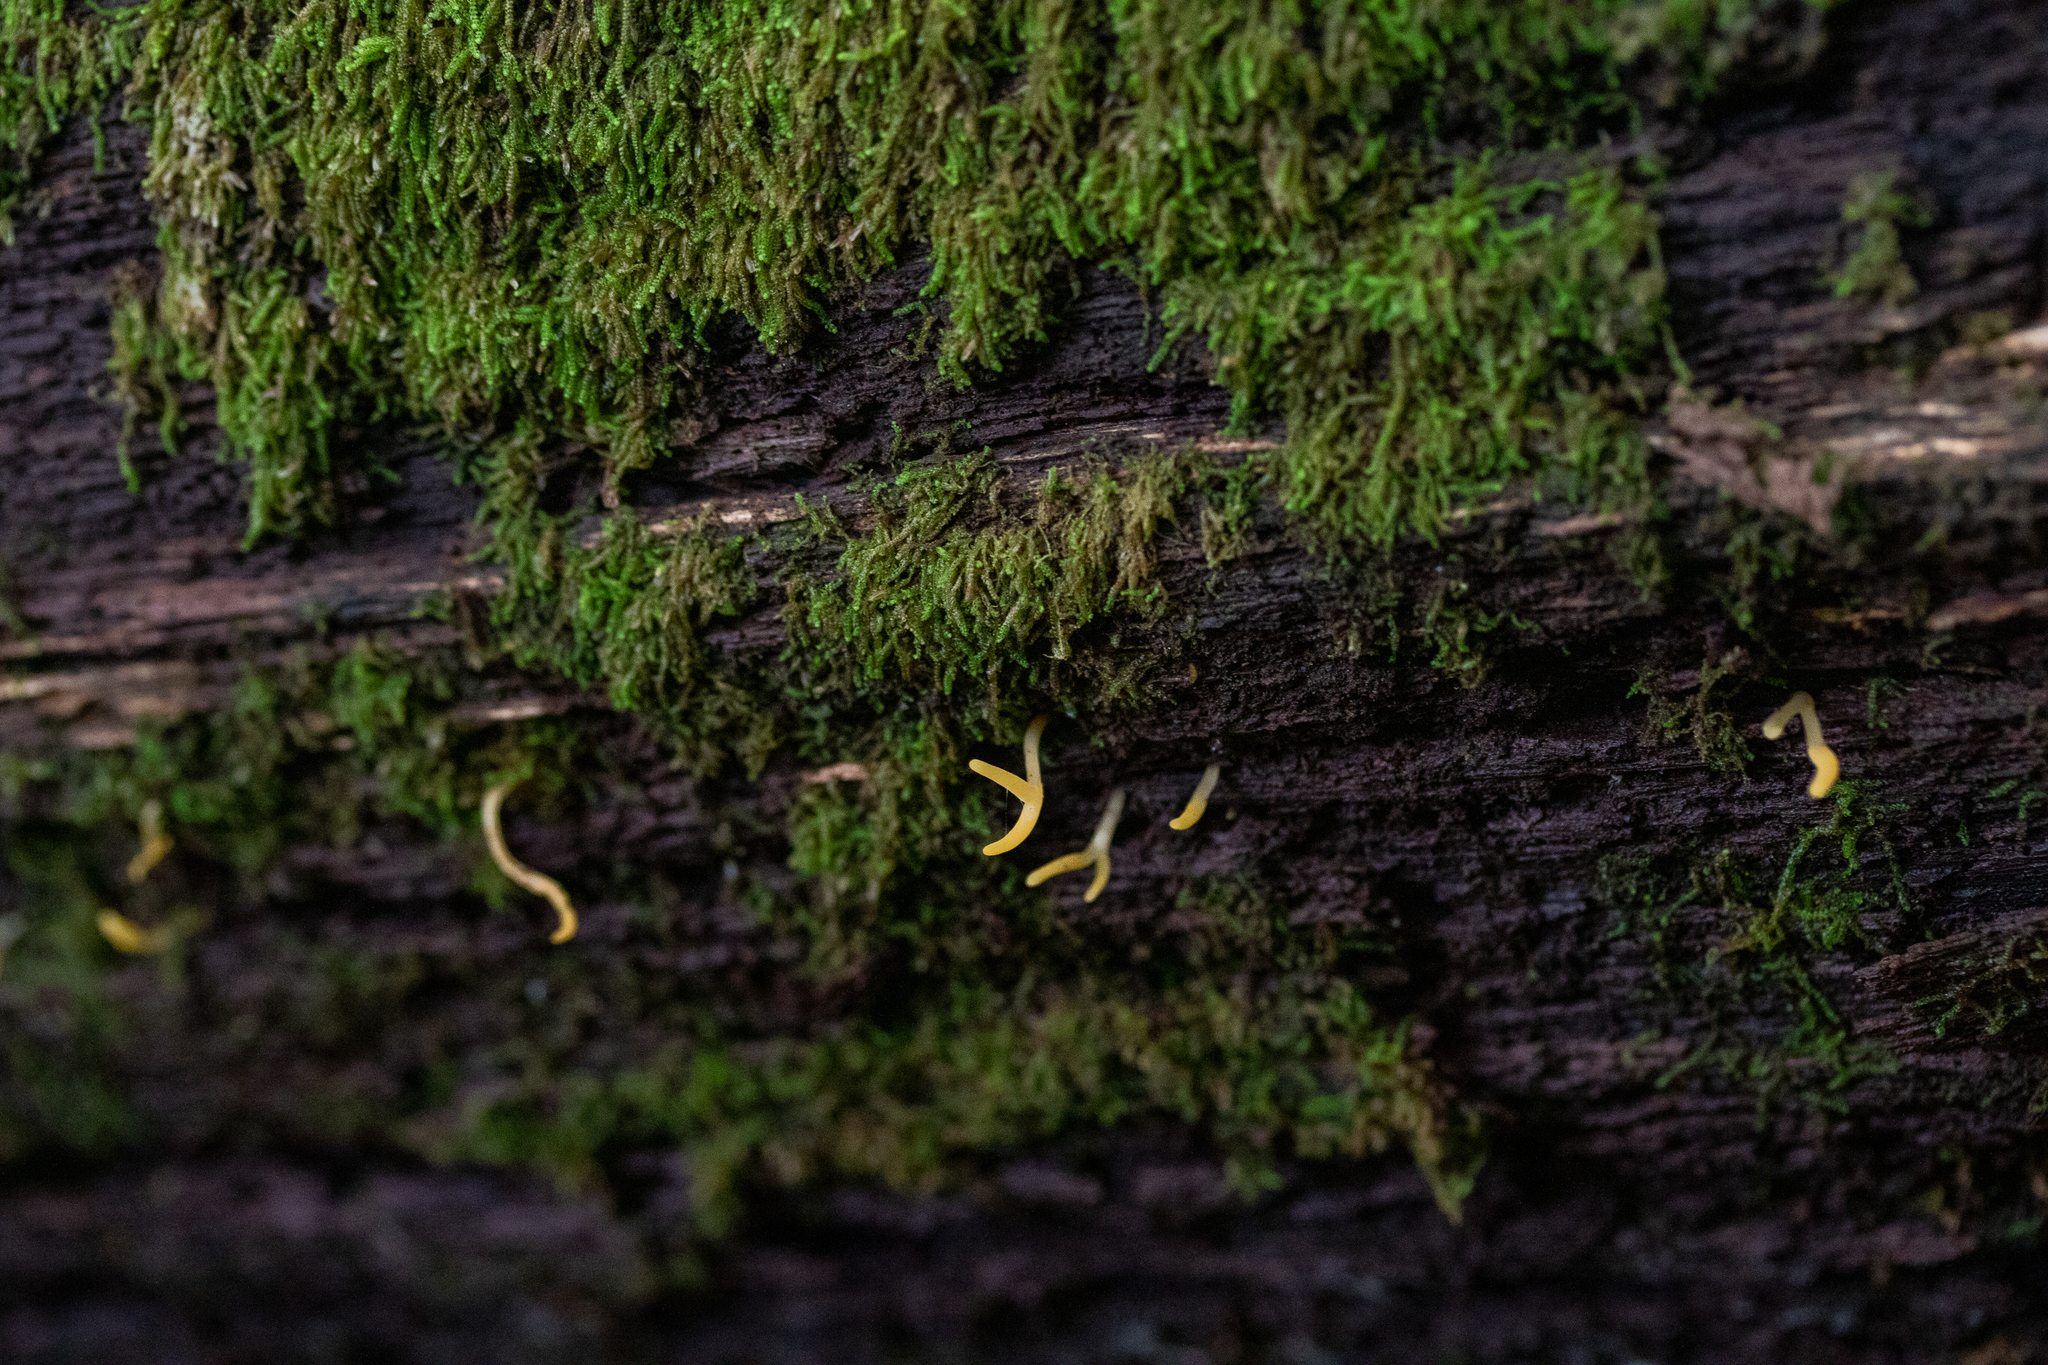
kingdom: Fungi
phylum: Basidiomycota
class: Dacrymycetes
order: Dacrymycetales
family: Dacrymycetaceae
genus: Calocera
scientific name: Calocera cornea
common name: Small stagshorn
